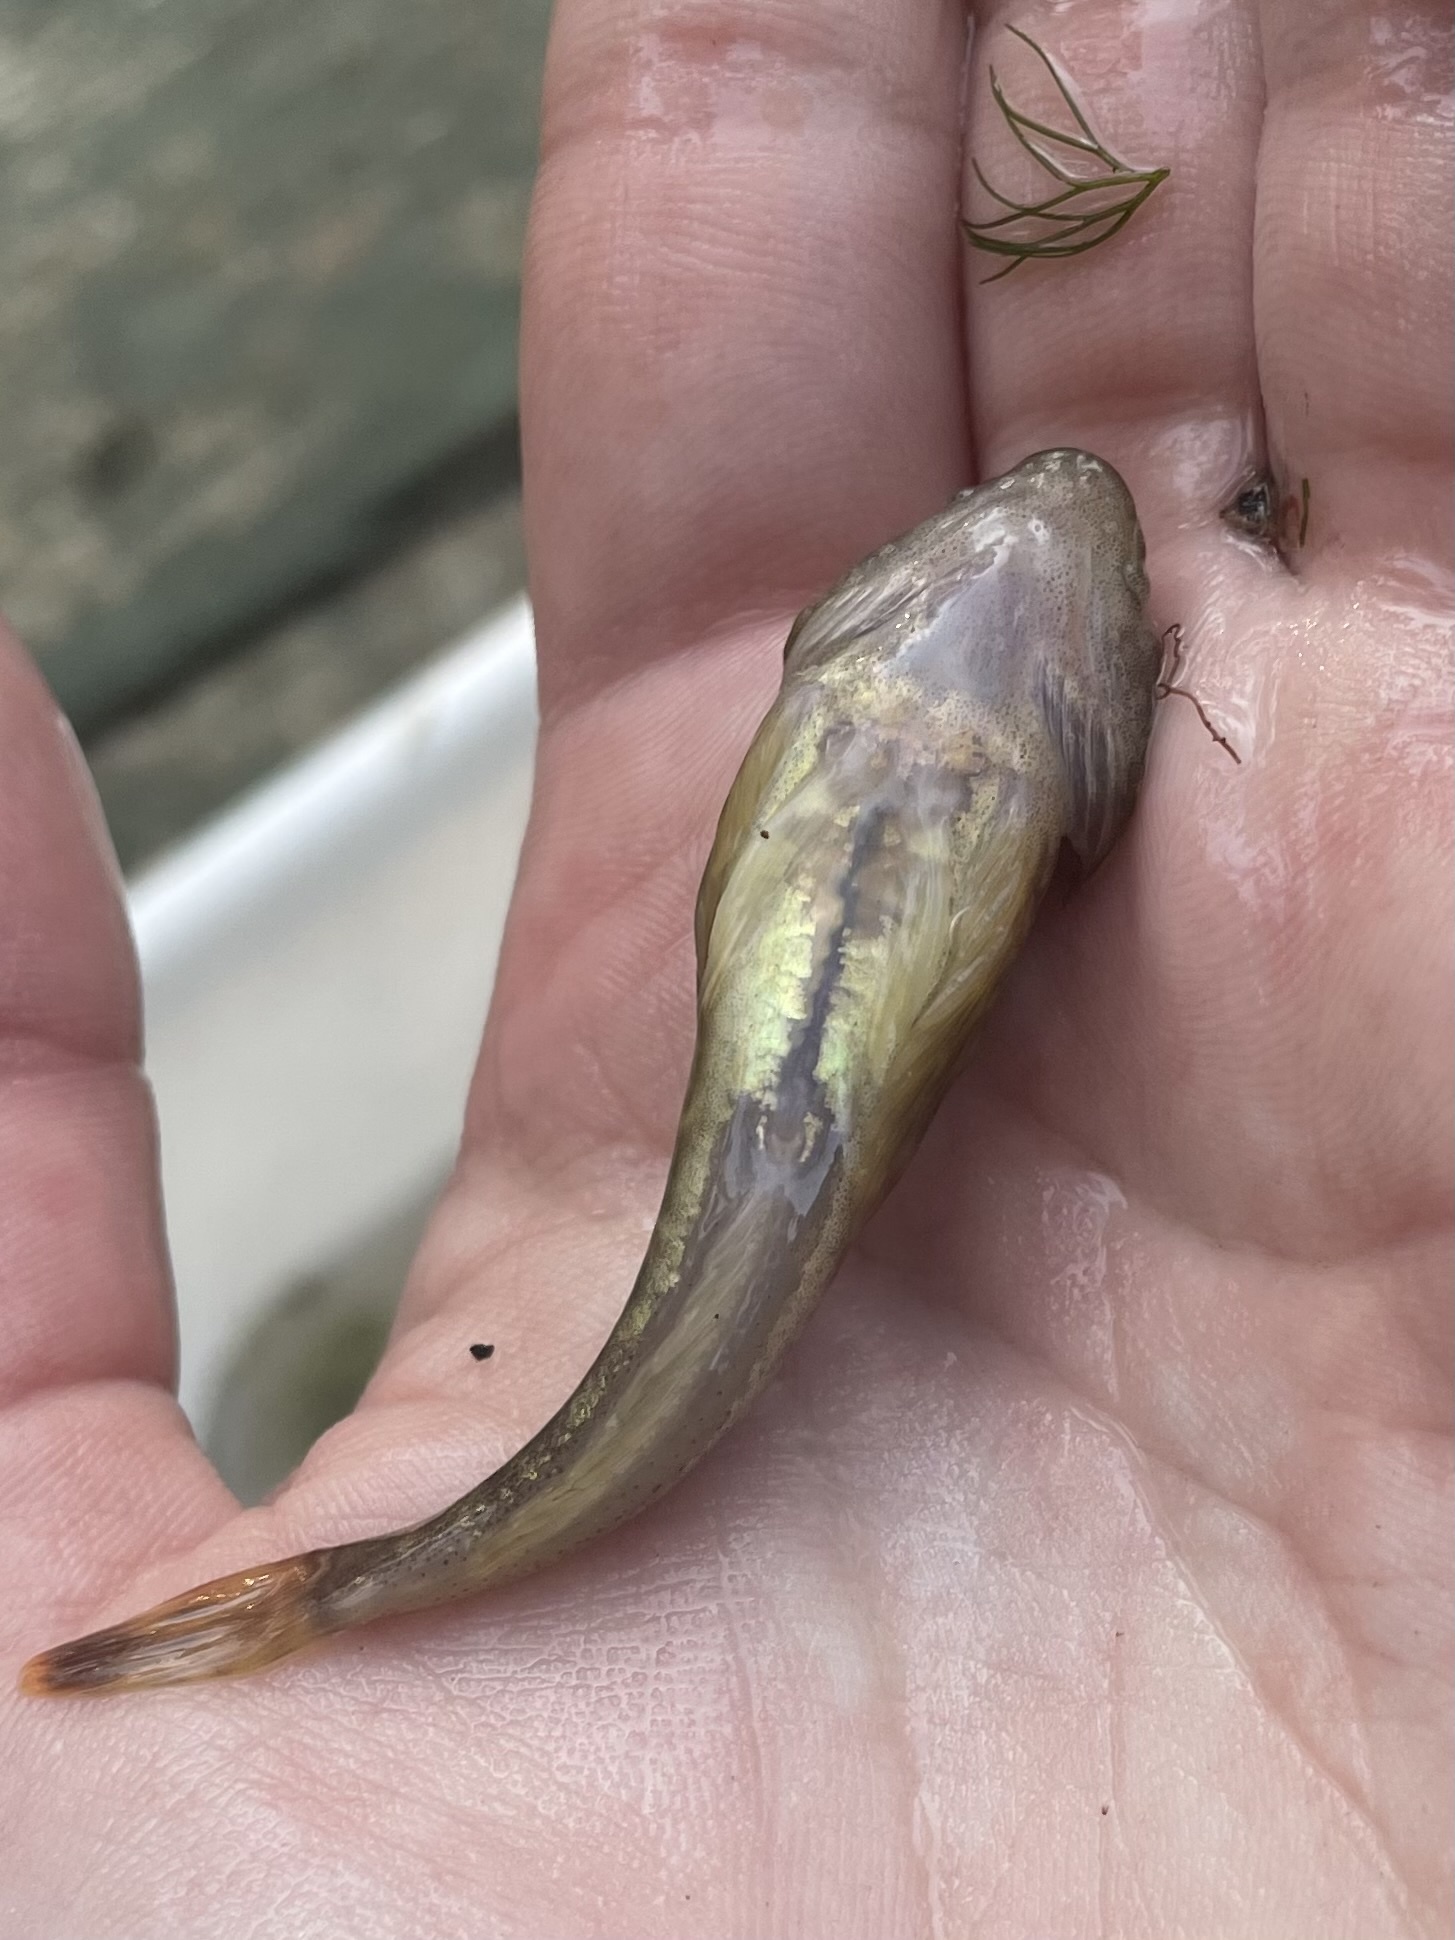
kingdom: Animalia
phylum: Chordata
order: Scorpaeniformes
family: Cottidae
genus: Cottus
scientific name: Cottus bairdii
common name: Mottled sculpin
